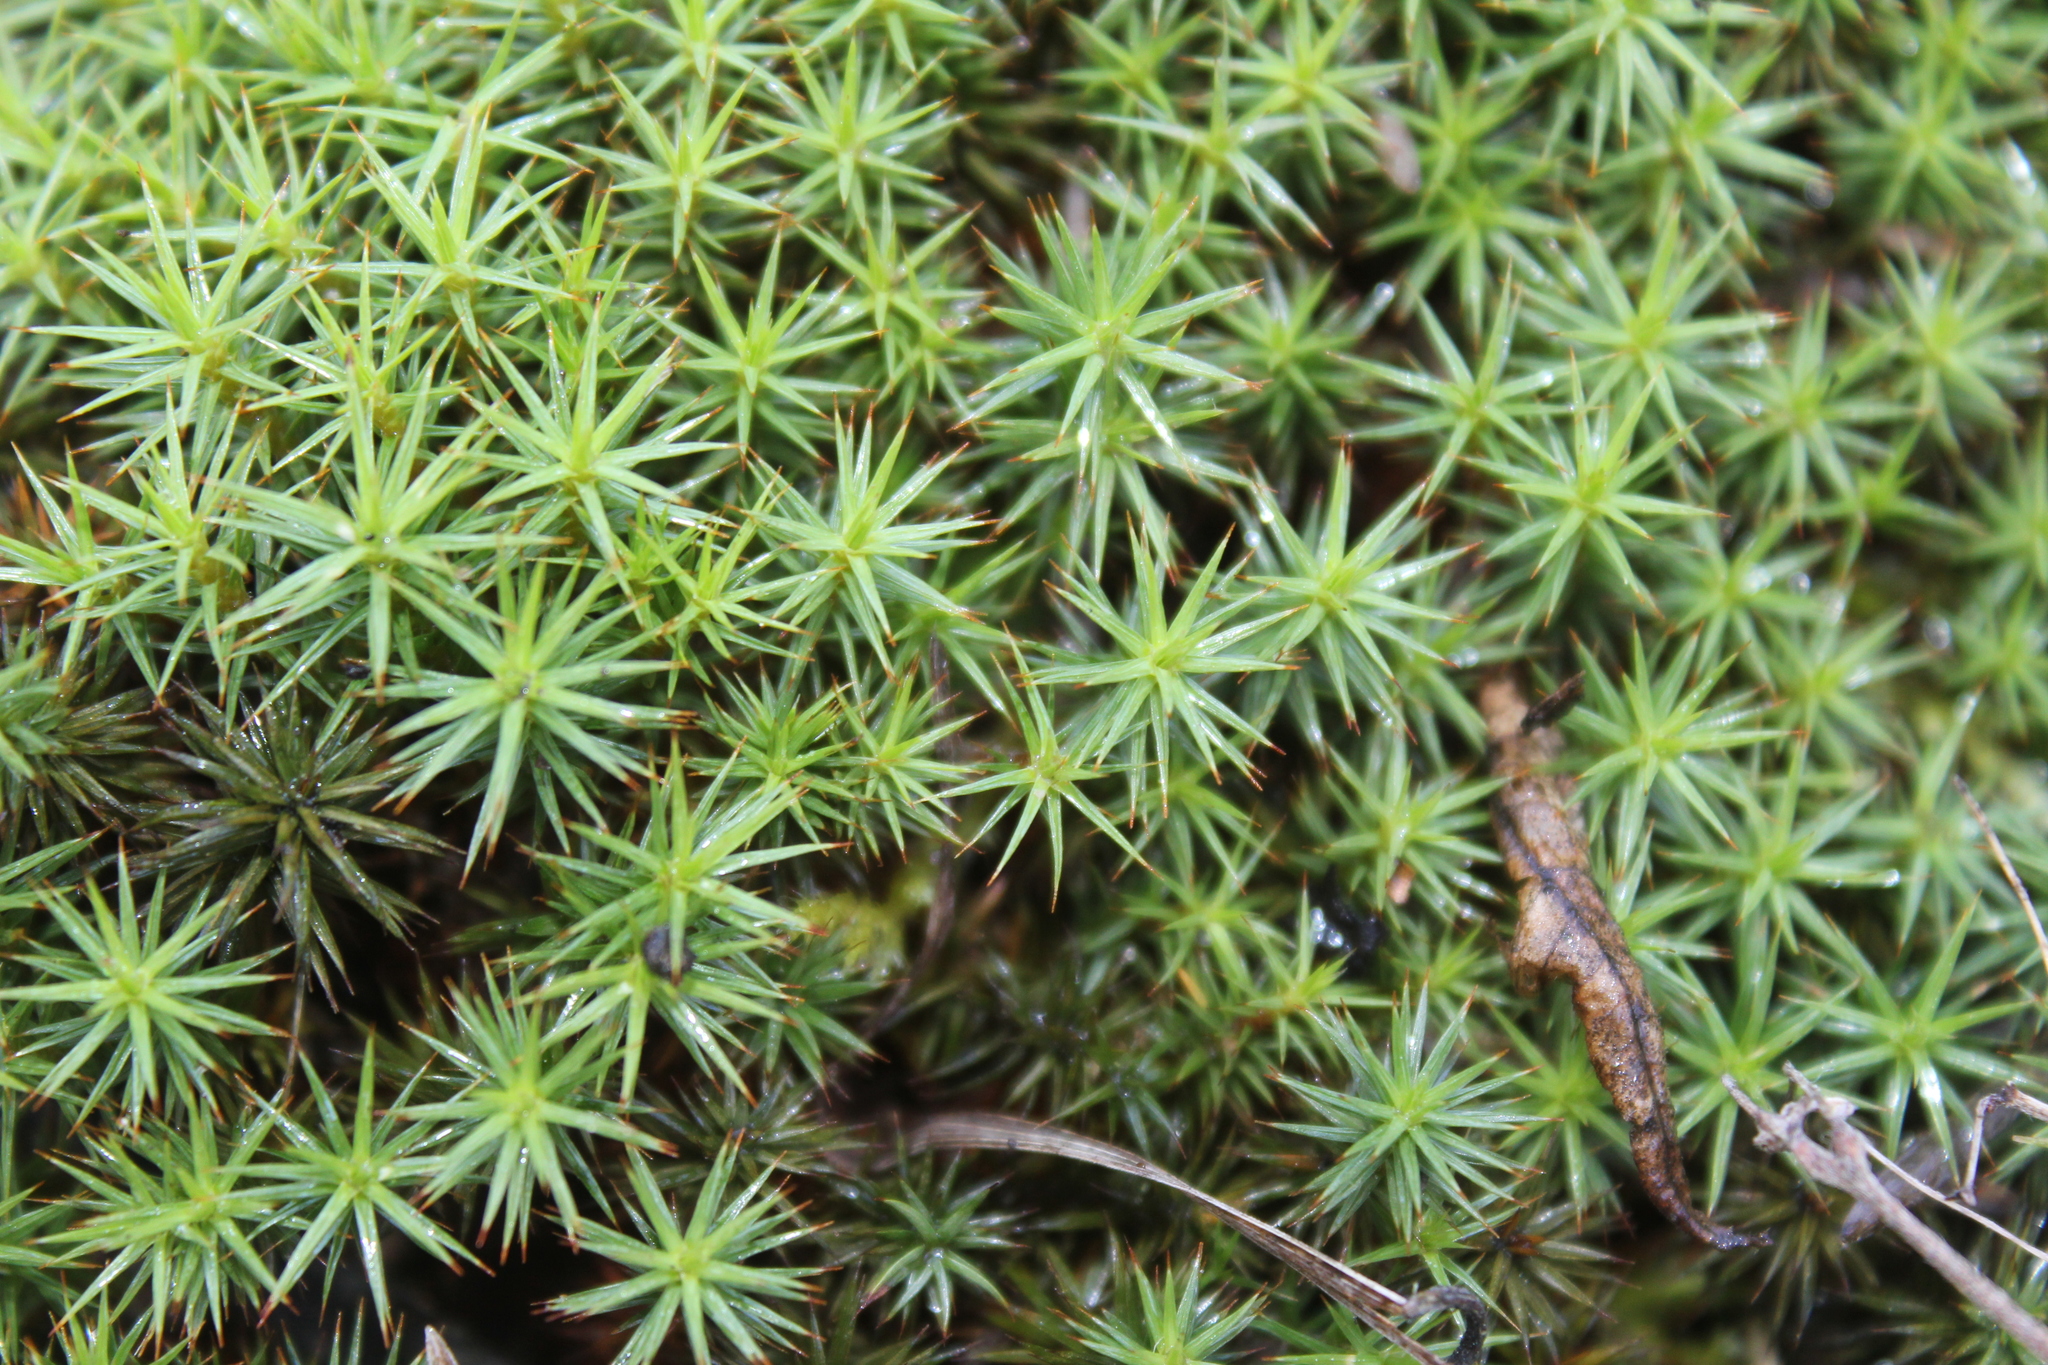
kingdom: Plantae
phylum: Bryophyta
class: Polytrichopsida
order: Polytrichales
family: Polytrichaceae
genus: Polytrichum
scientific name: Polytrichum juniperinum
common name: Juniper haircap moss
